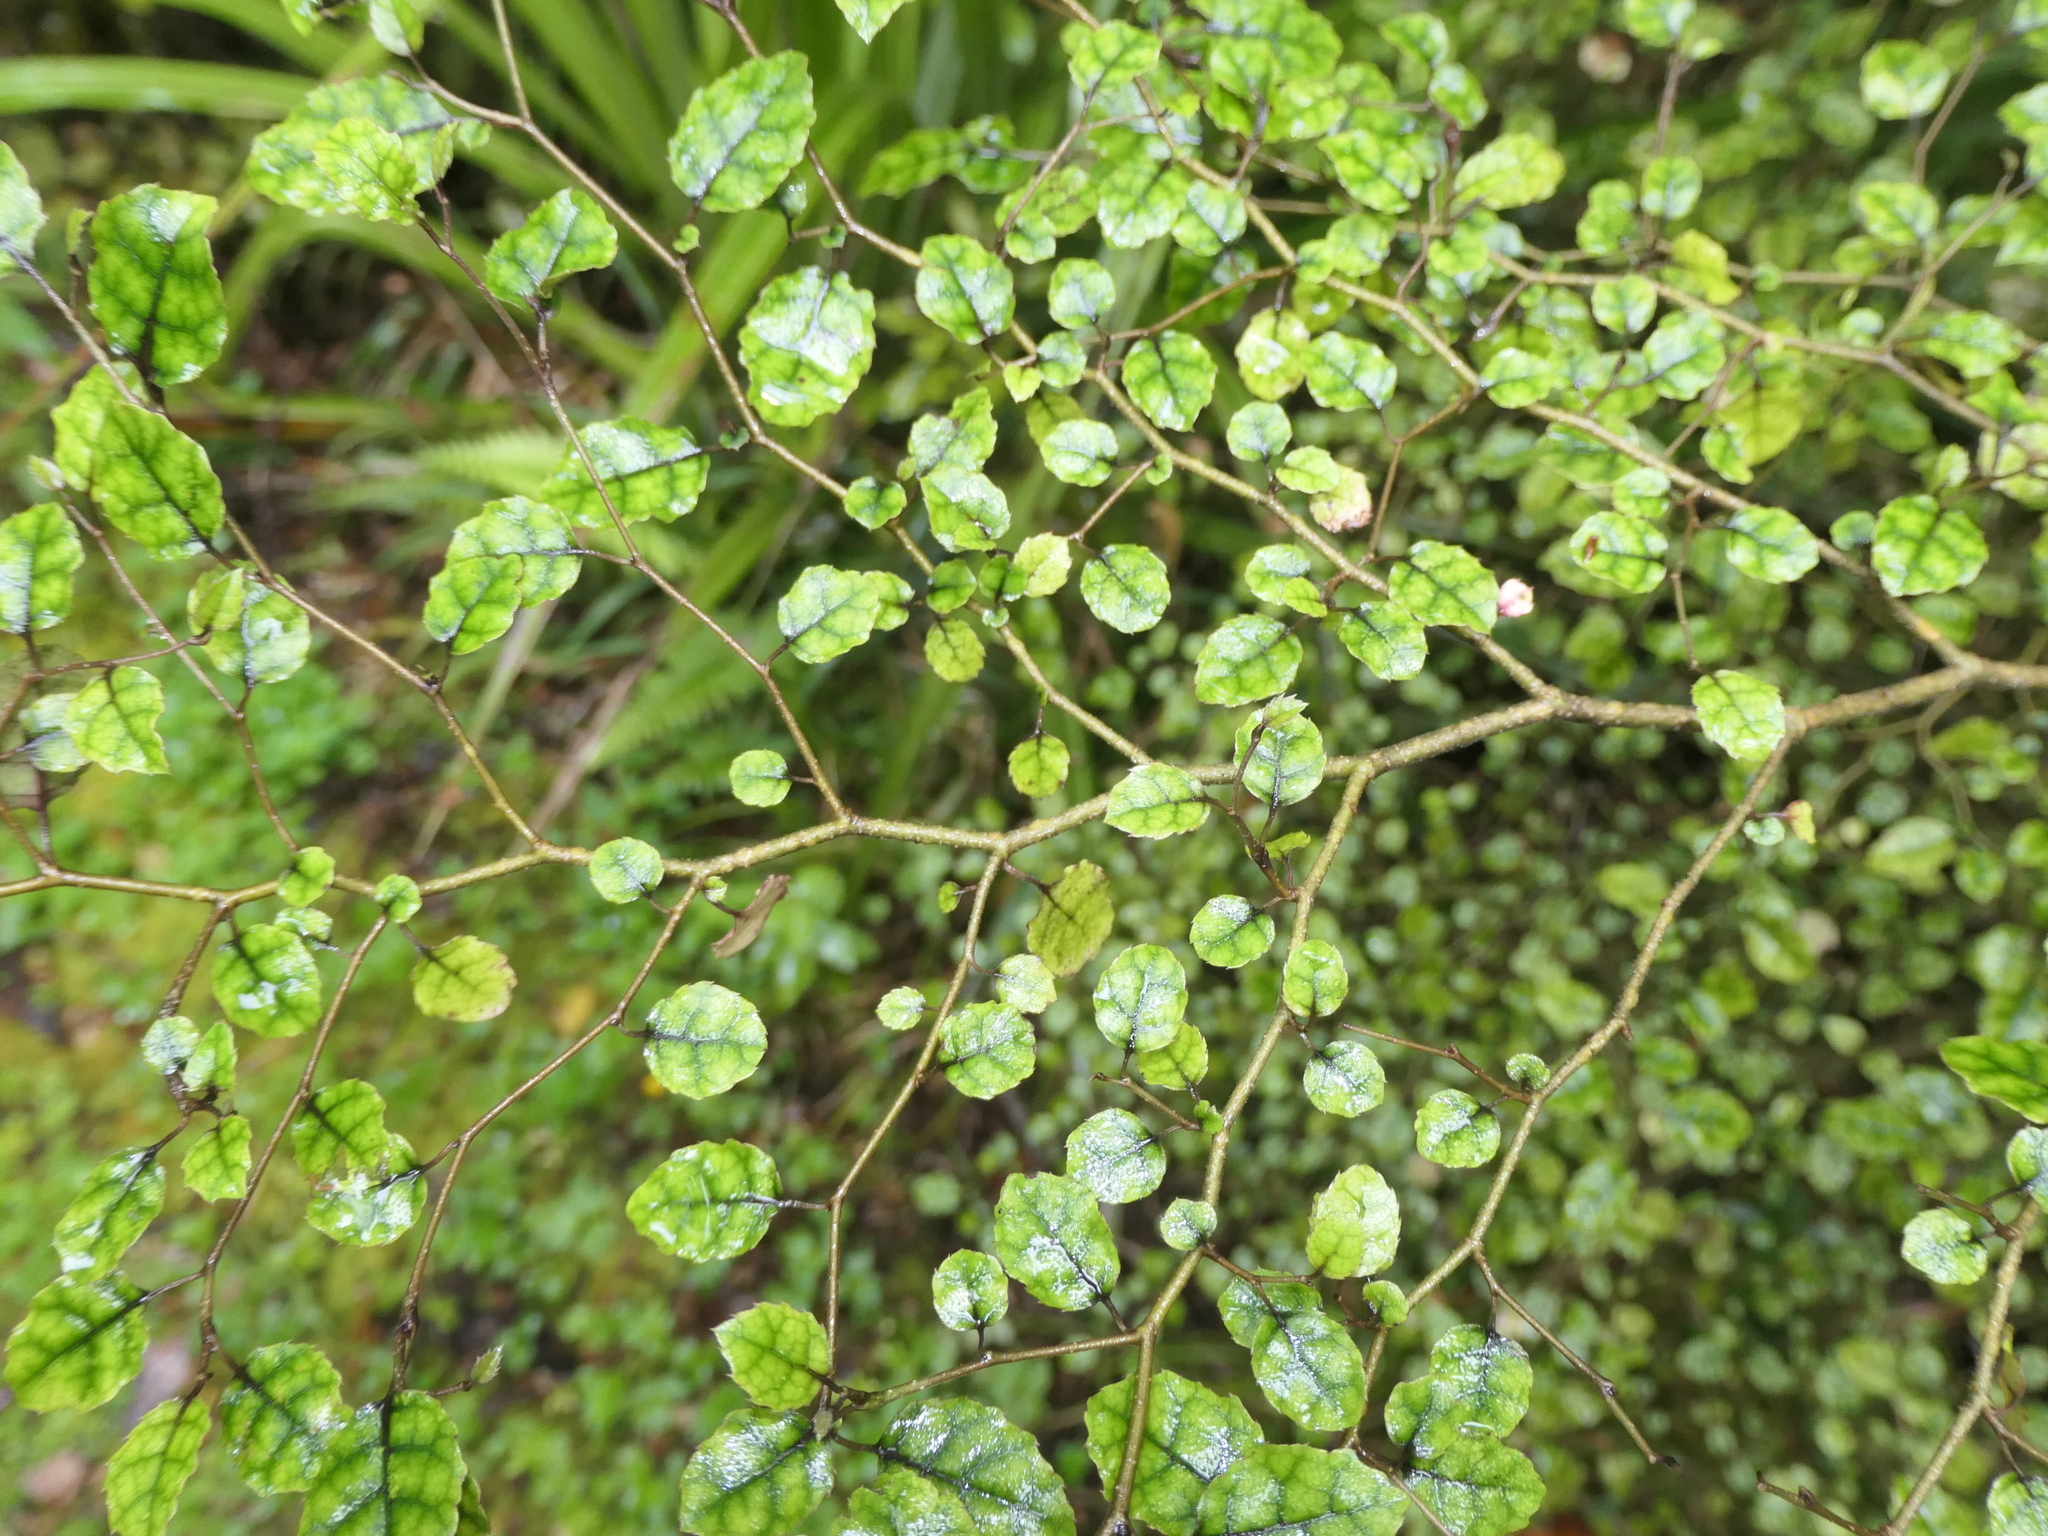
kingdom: Plantae
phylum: Tracheophyta
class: Magnoliopsida
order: Asterales
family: Rousseaceae
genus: Carpodetus
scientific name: Carpodetus serratus
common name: White mapau
